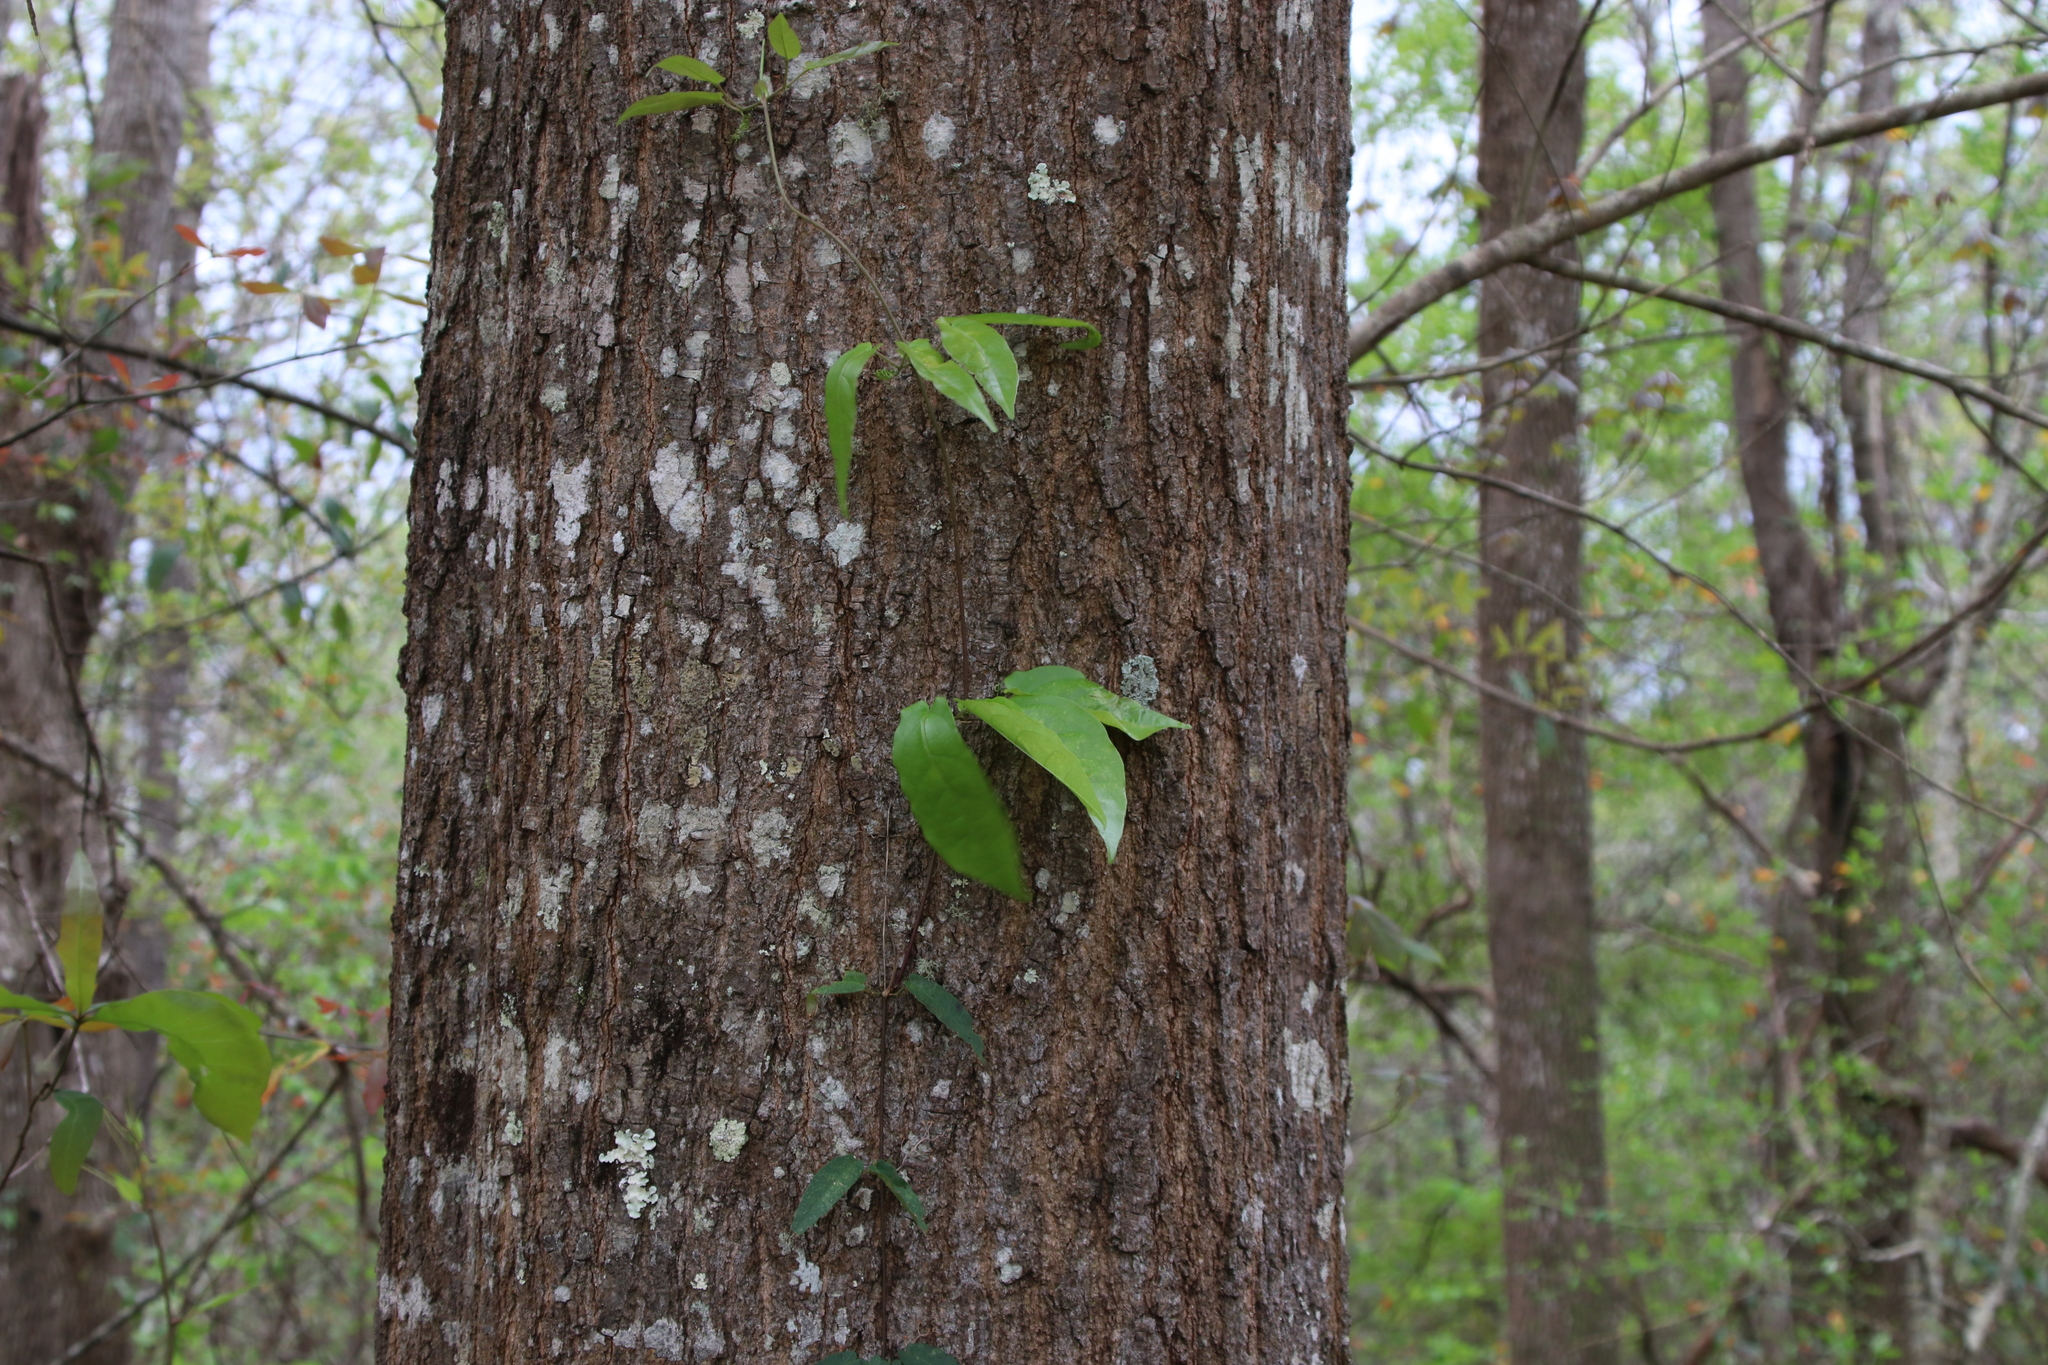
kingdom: Plantae
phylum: Tracheophyta
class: Magnoliopsida
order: Lamiales
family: Bignoniaceae
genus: Bignonia
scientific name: Bignonia capreolata
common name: Crossvine
